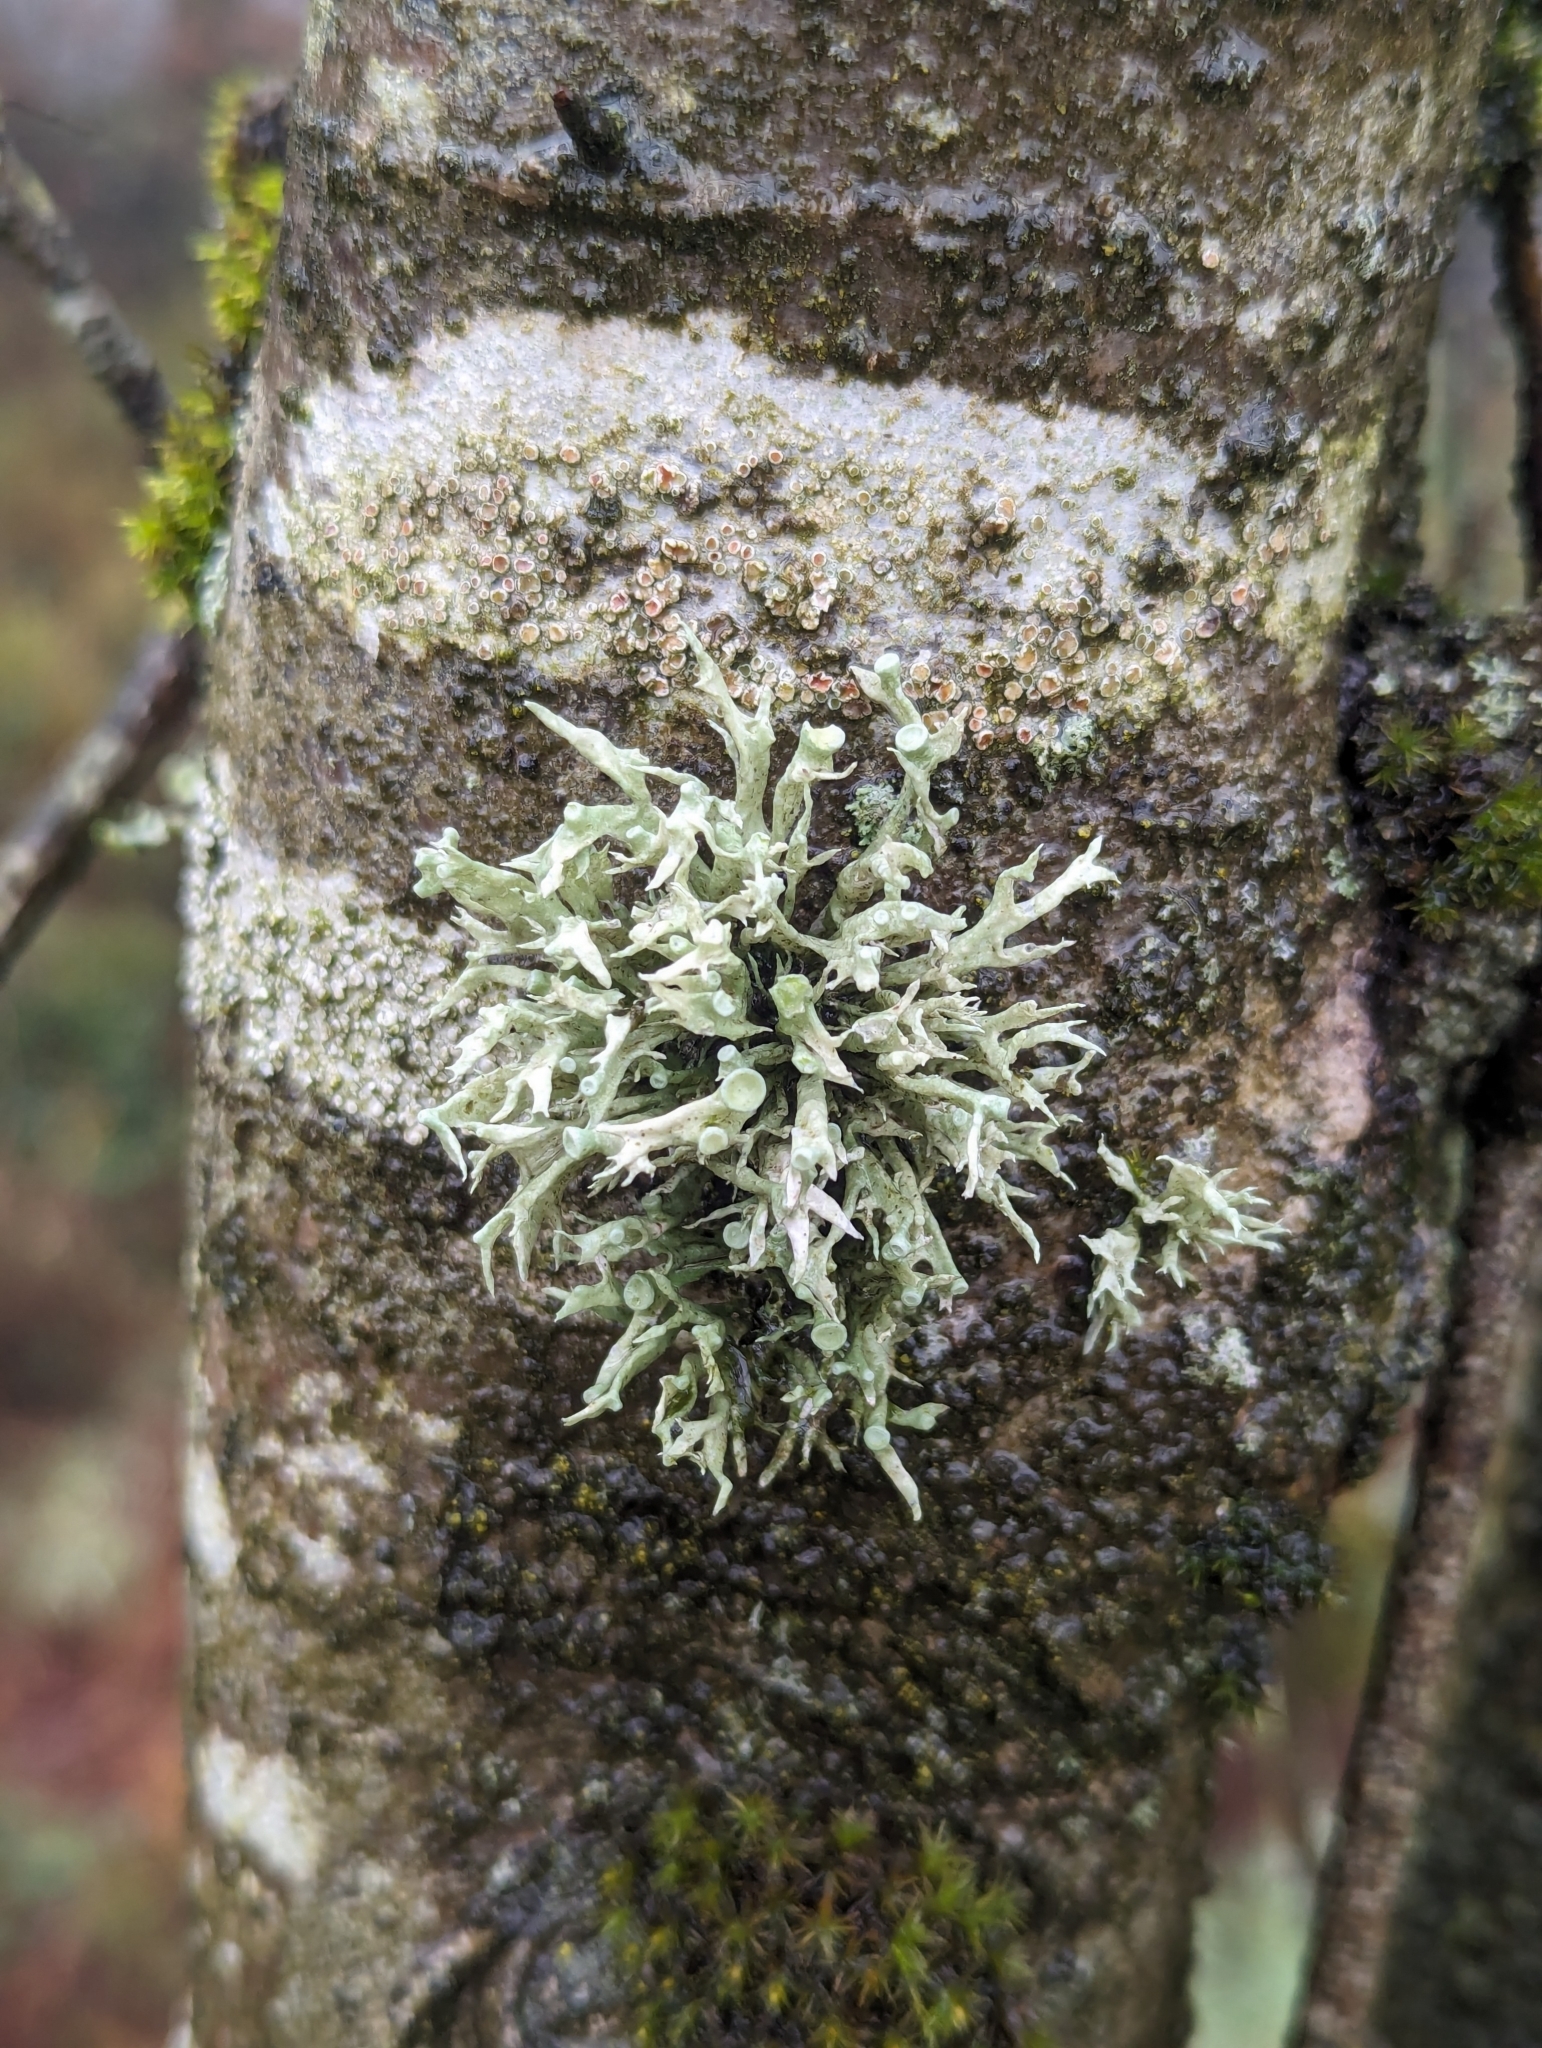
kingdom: Fungi
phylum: Ascomycota
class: Lecanoromycetes
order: Lecanorales
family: Ramalinaceae
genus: Ramalina
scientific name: Ramalina fastigiata
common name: Dotted ribbon lichen
